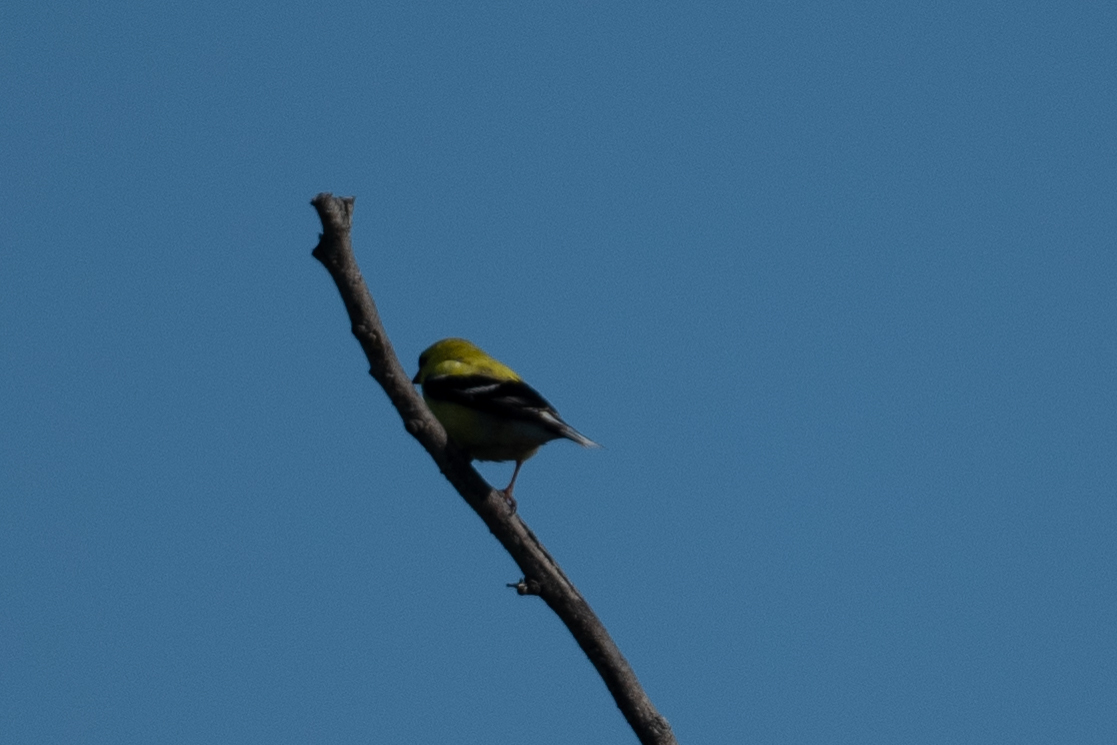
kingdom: Animalia
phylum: Chordata
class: Aves
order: Passeriformes
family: Fringillidae
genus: Spinus
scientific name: Spinus tristis
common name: American goldfinch
